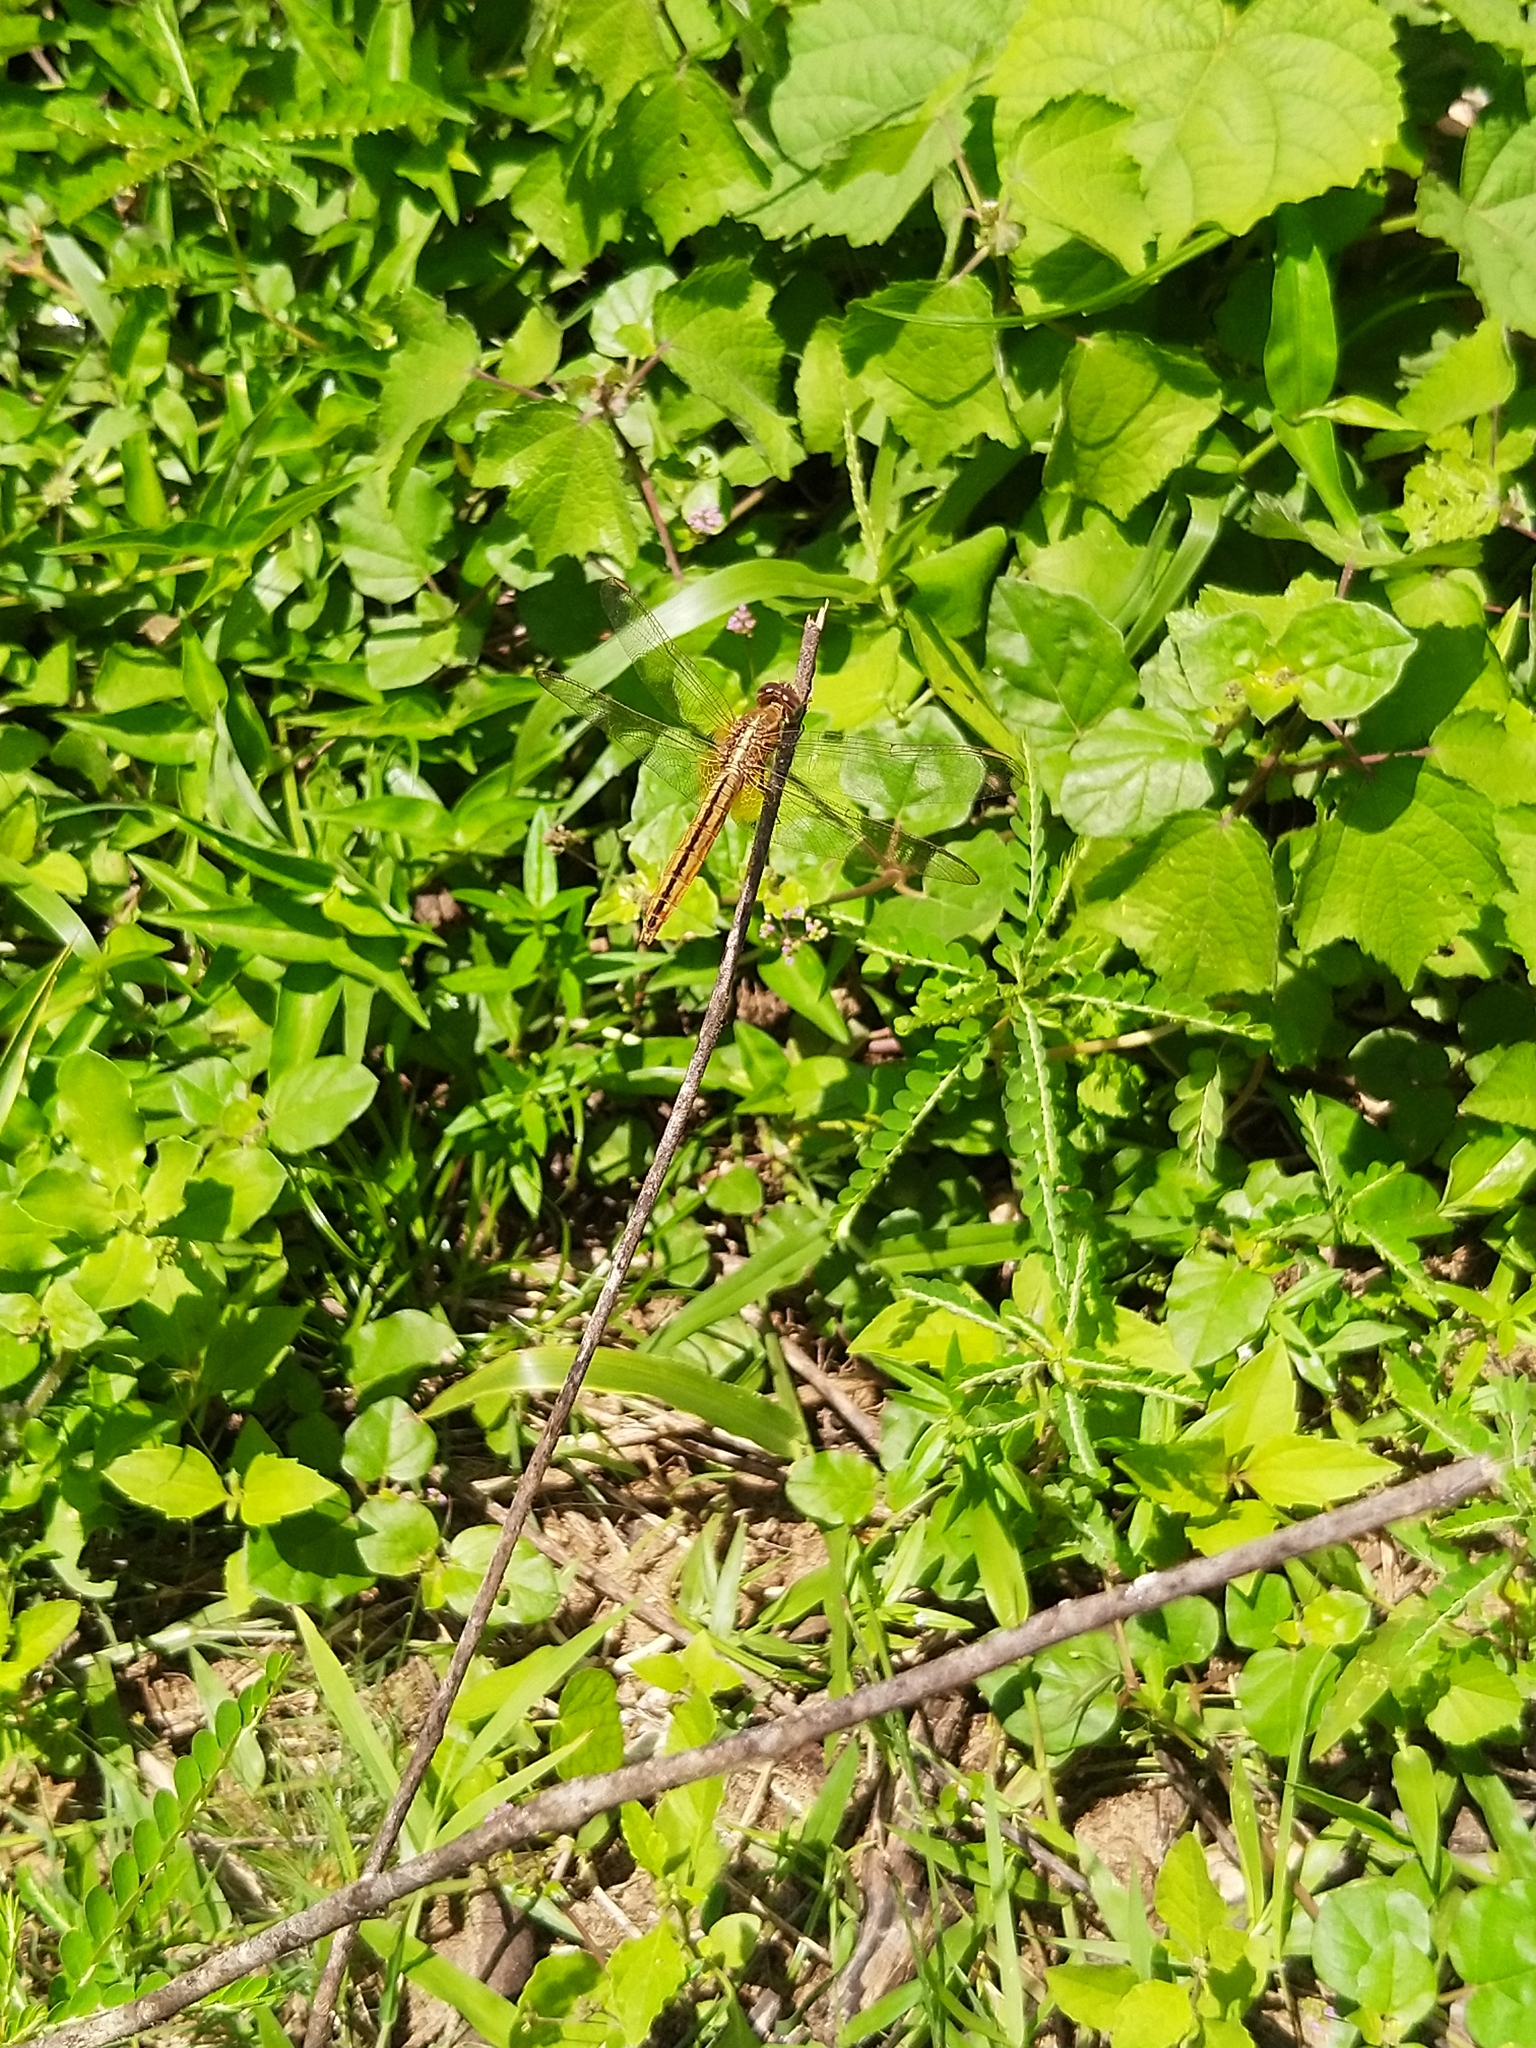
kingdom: Animalia
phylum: Arthropoda
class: Insecta
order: Odonata
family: Libellulidae
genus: Crocothemis
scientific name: Crocothemis servilia
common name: Scarlet skimmer
